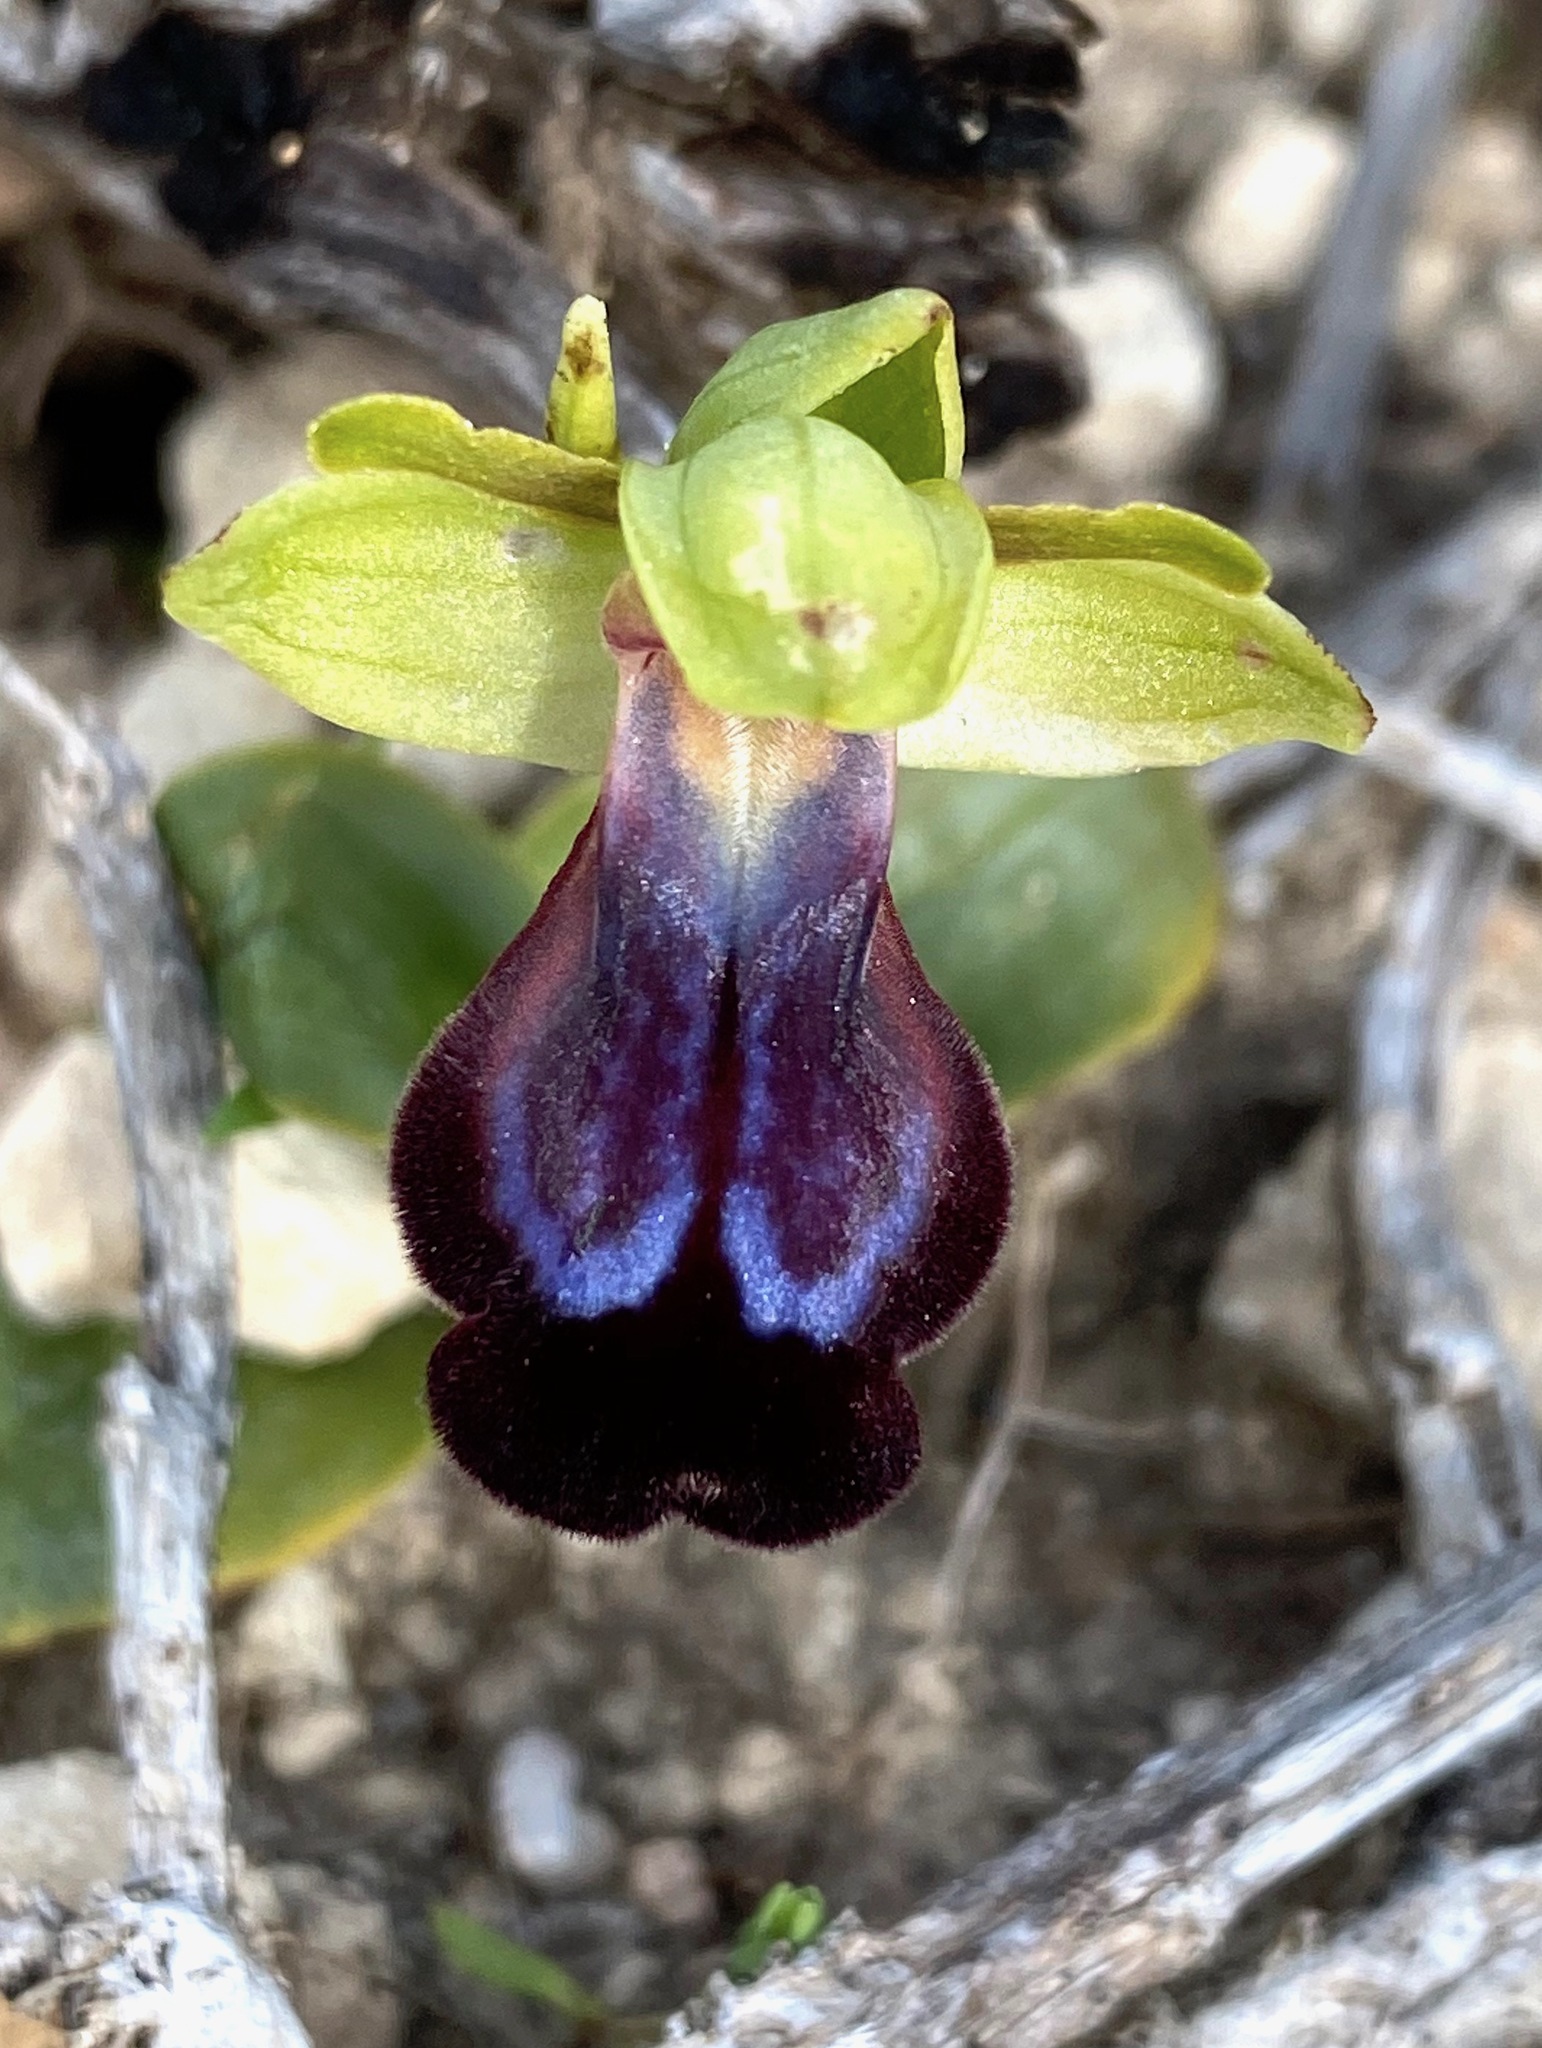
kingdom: Plantae
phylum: Tracheophyta
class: Liliopsida
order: Asparagales
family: Orchidaceae
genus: Ophrys
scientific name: Ophrys fusca
